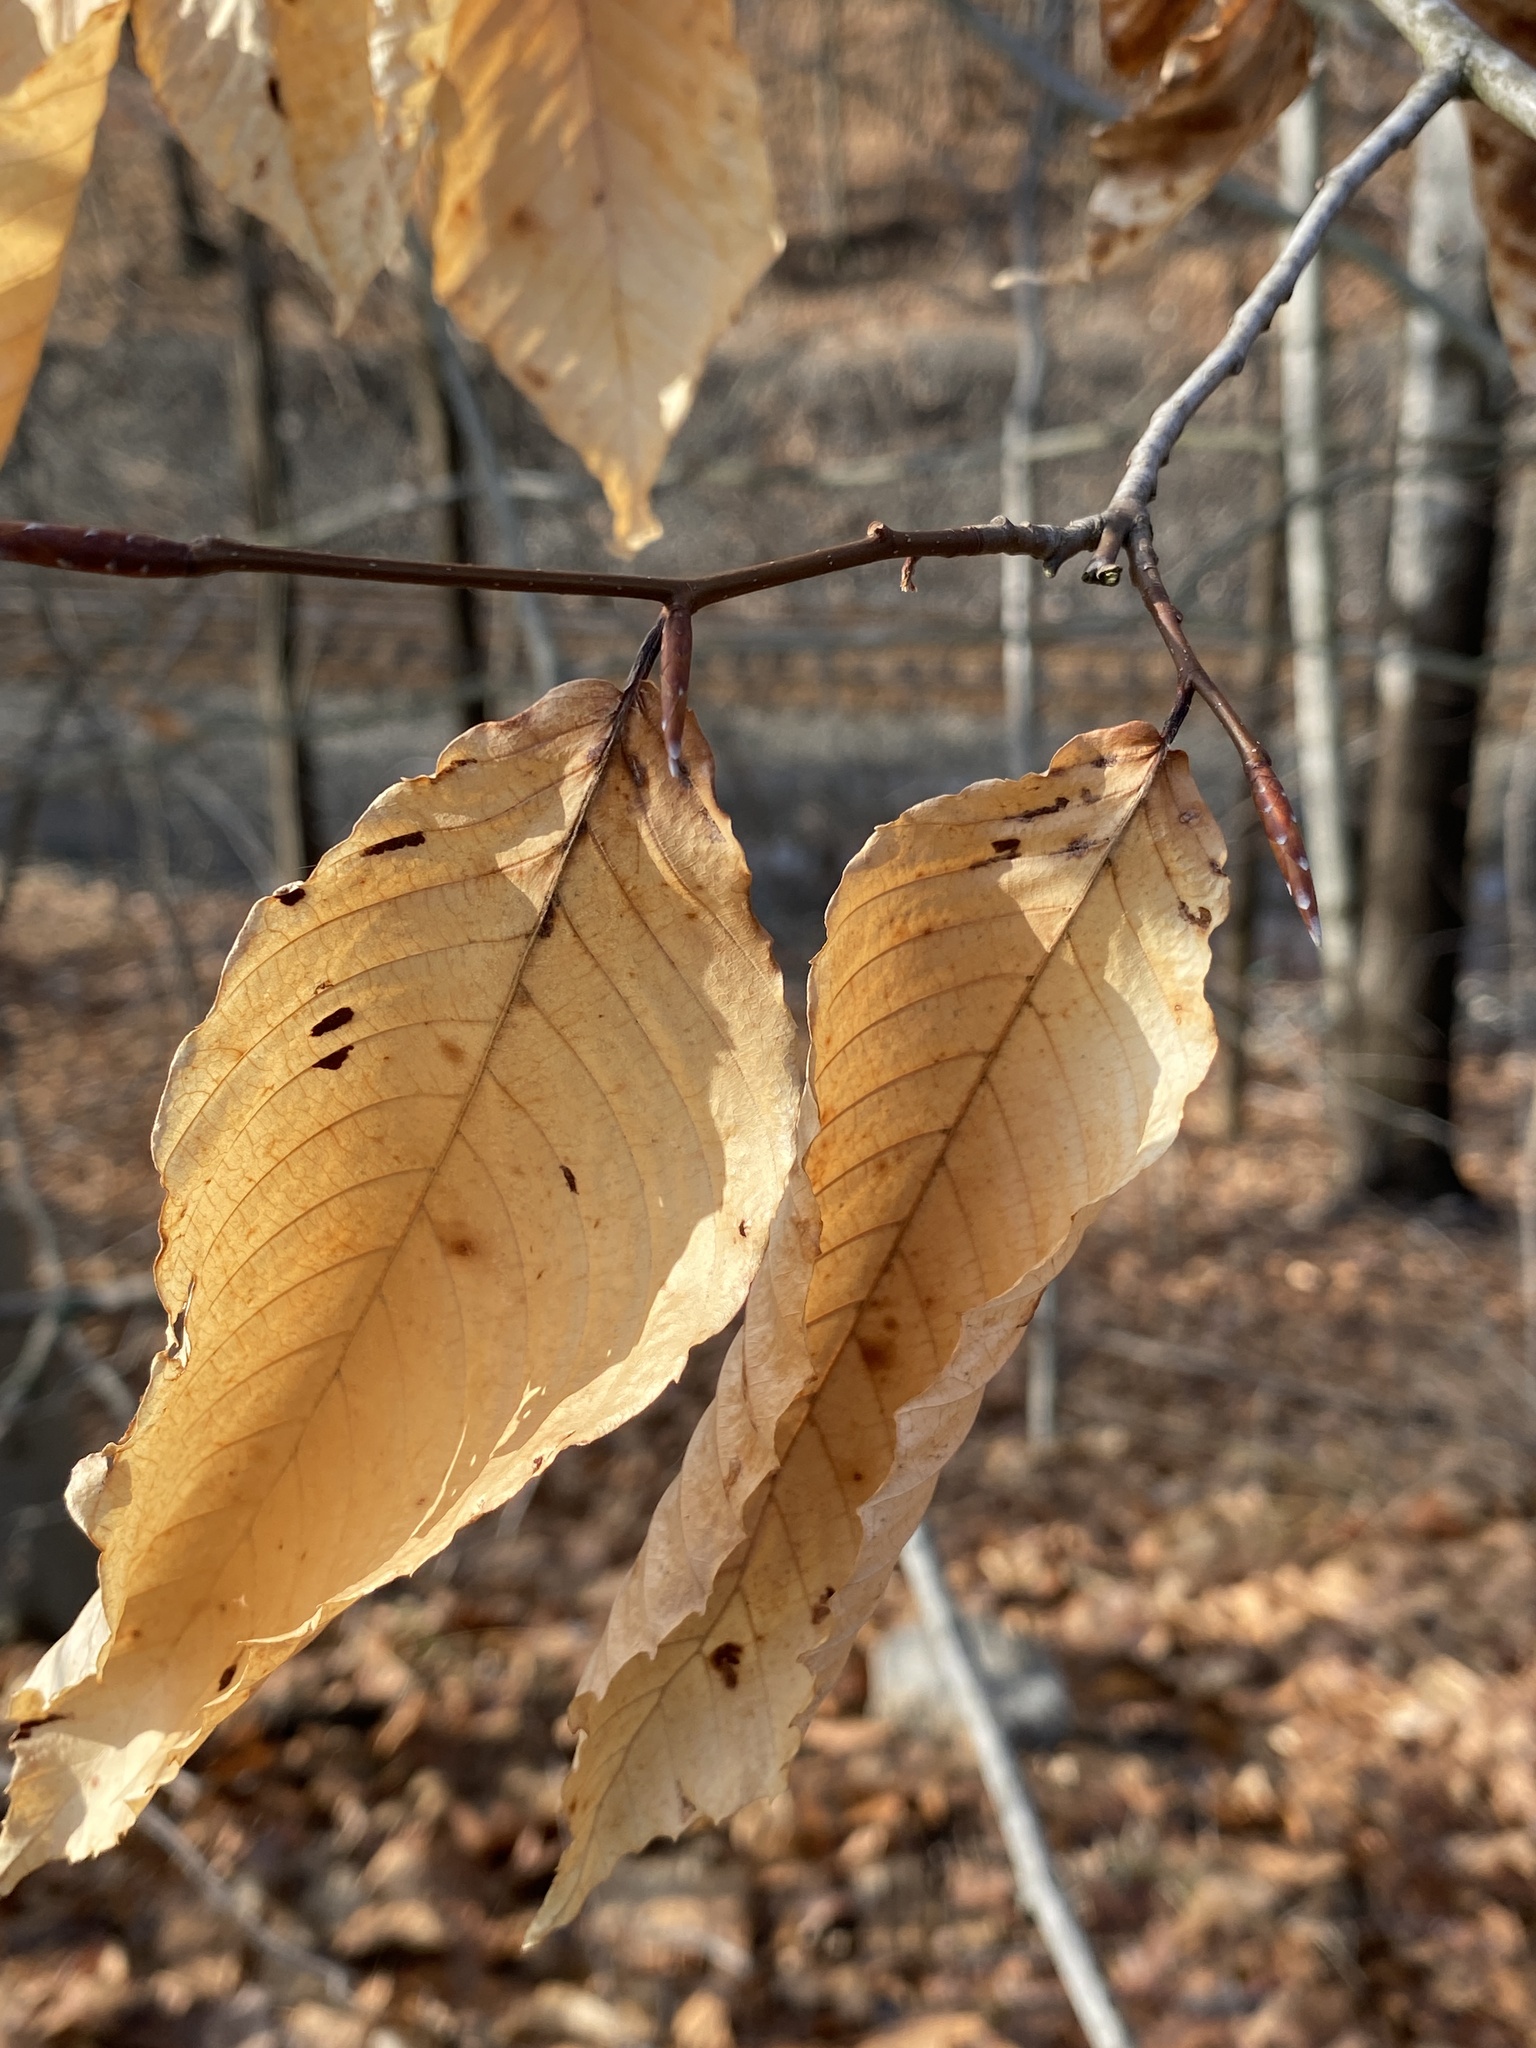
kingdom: Plantae
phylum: Tracheophyta
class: Magnoliopsida
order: Fagales
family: Fagaceae
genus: Fagus
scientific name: Fagus grandifolia
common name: American beech
